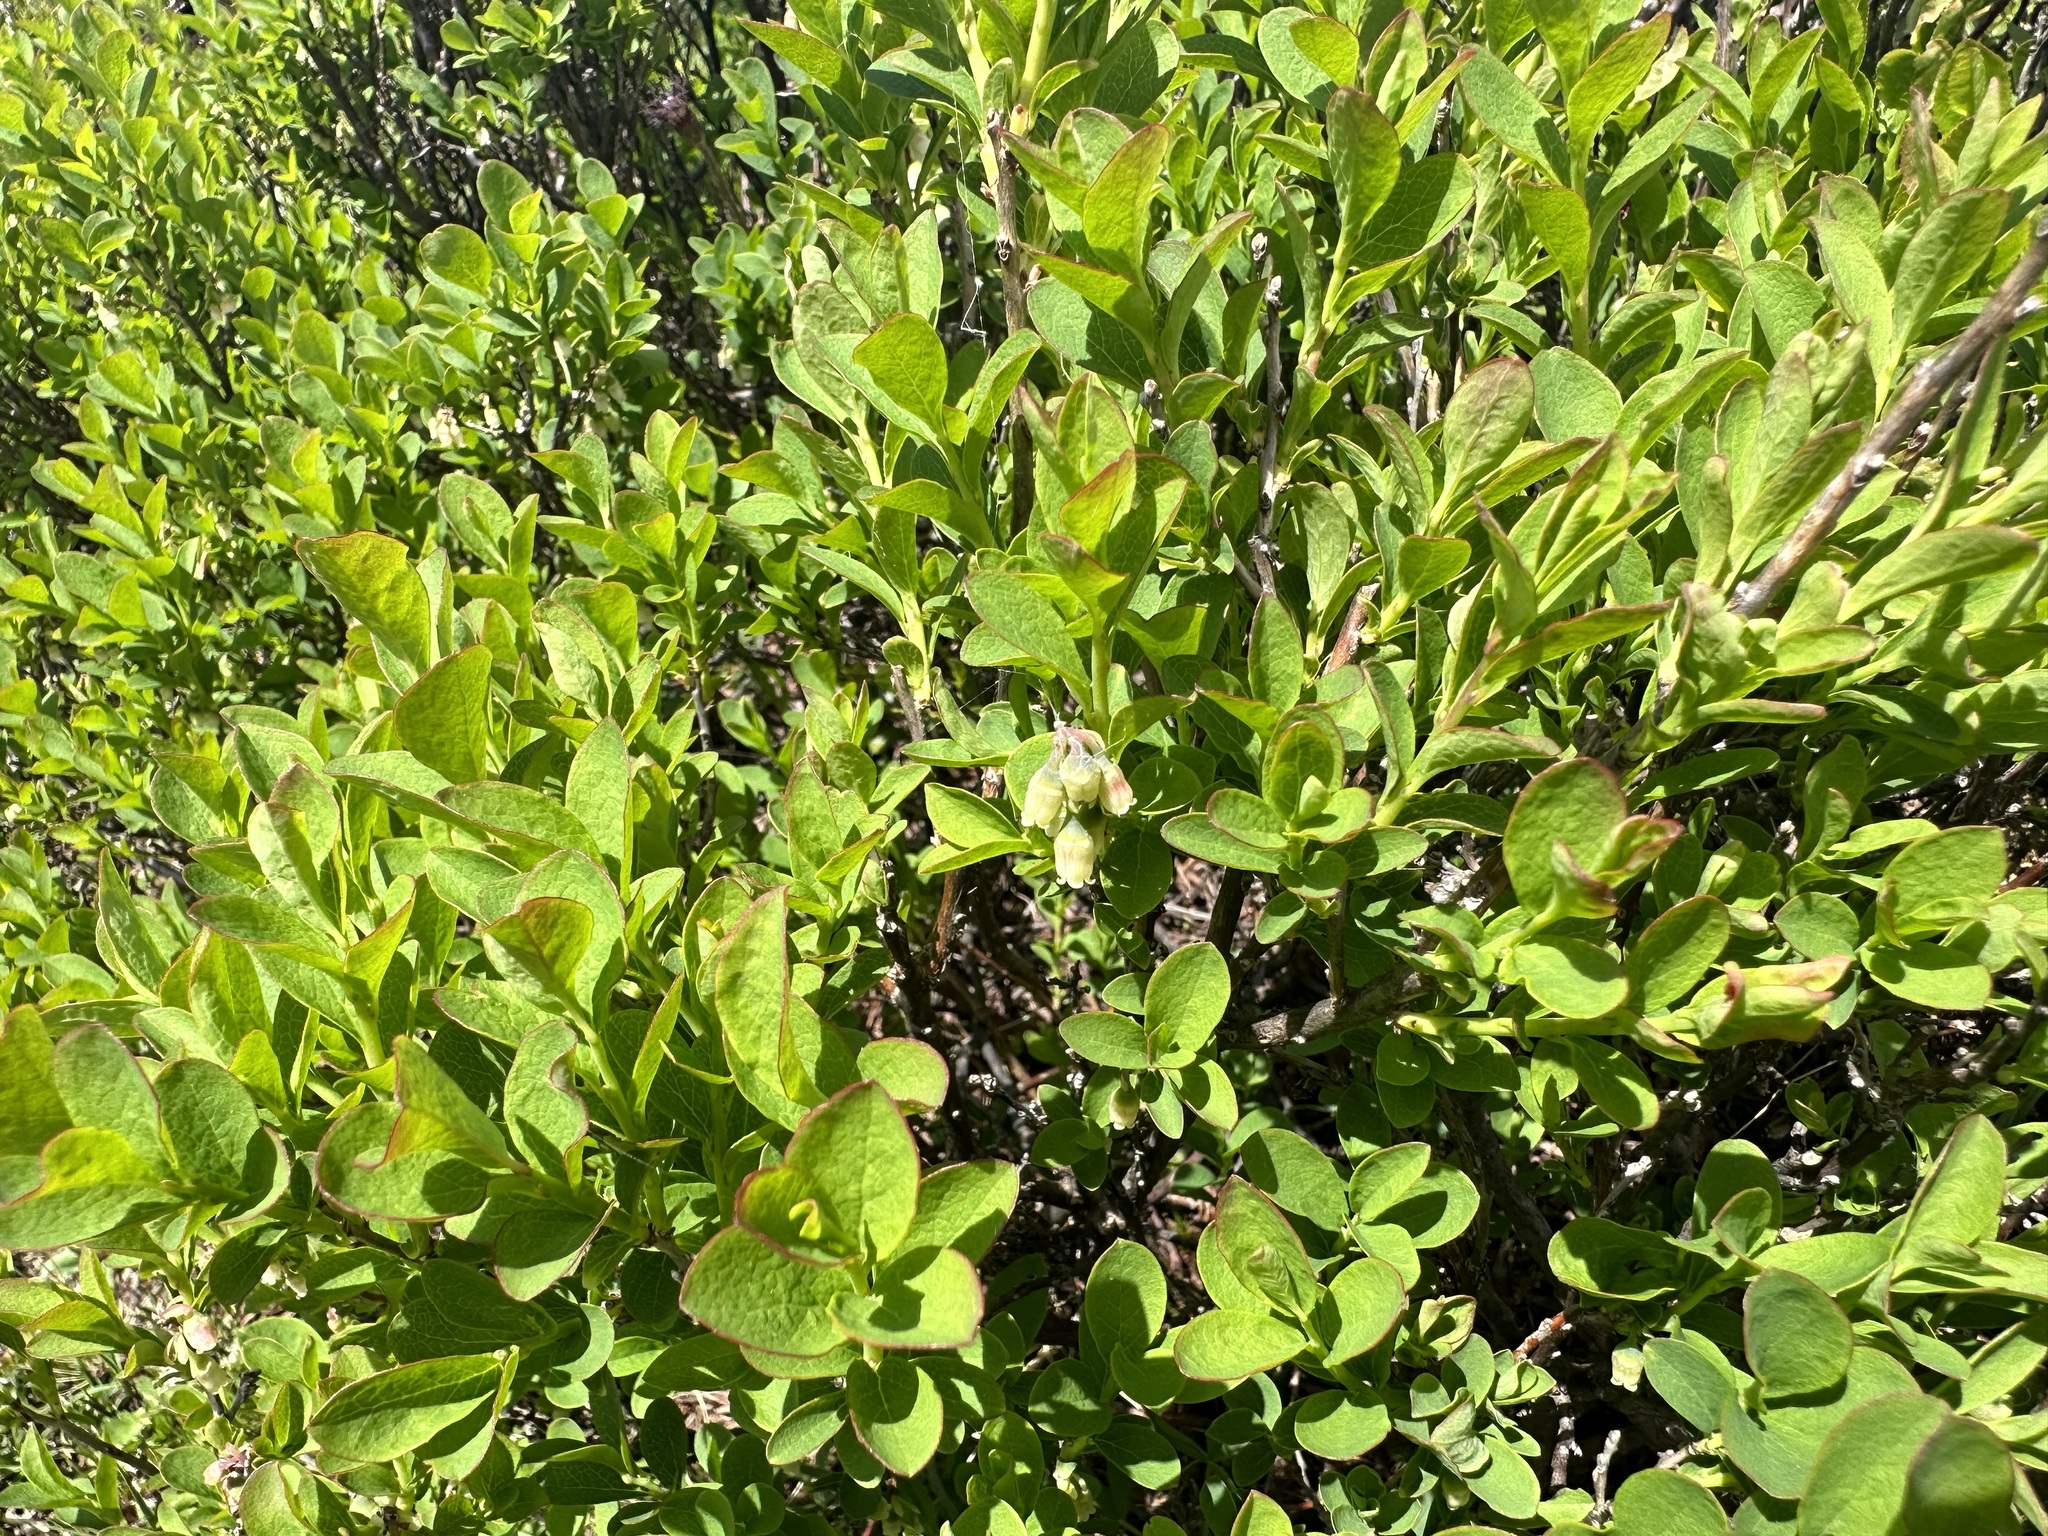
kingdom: Plantae
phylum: Tracheophyta
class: Magnoliopsida
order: Ericales
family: Ericaceae
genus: Vaccinium
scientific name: Vaccinium uliginosum
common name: Bog bilberry
